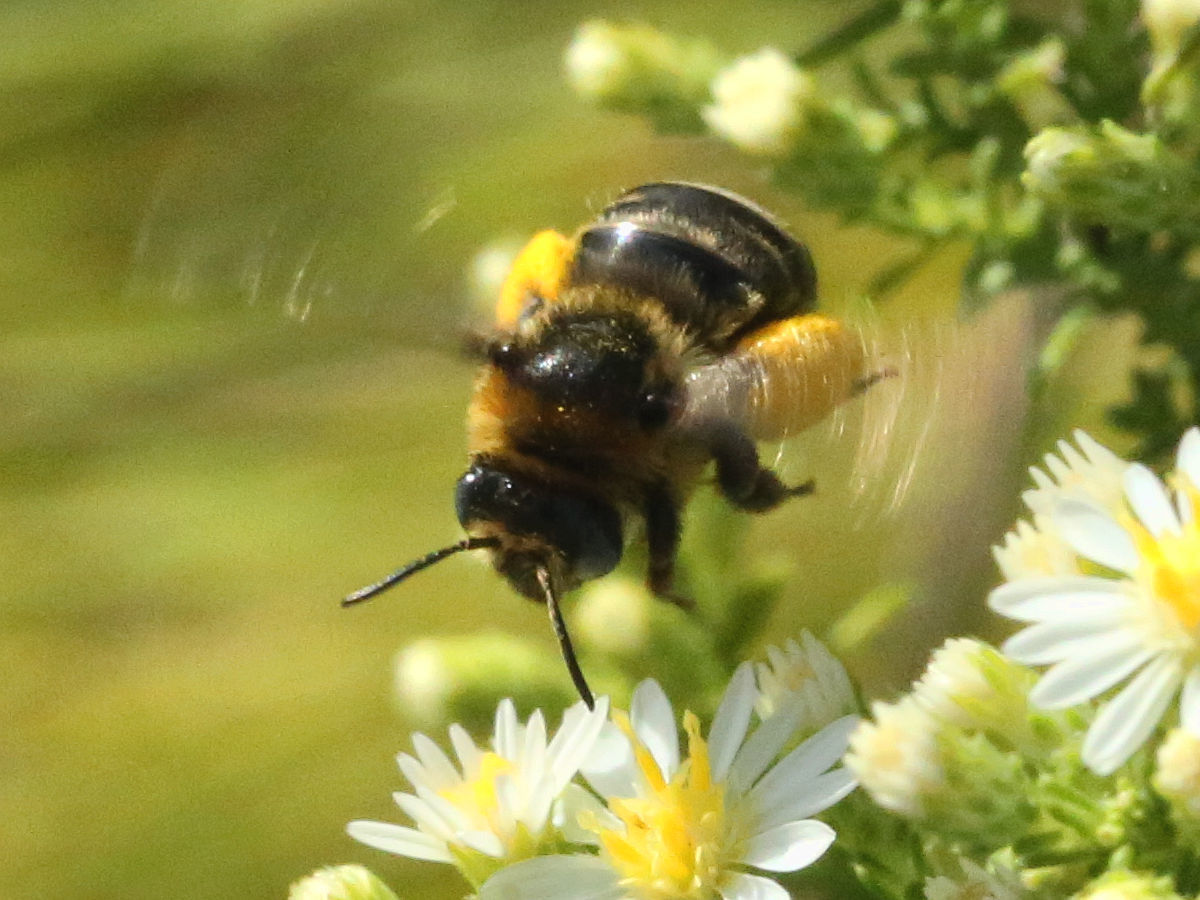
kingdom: Animalia
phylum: Arthropoda
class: Insecta
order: Hymenoptera
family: Apidae
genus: Melissodes
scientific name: Melissodes druriellus
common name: Drury's long-horned bee
